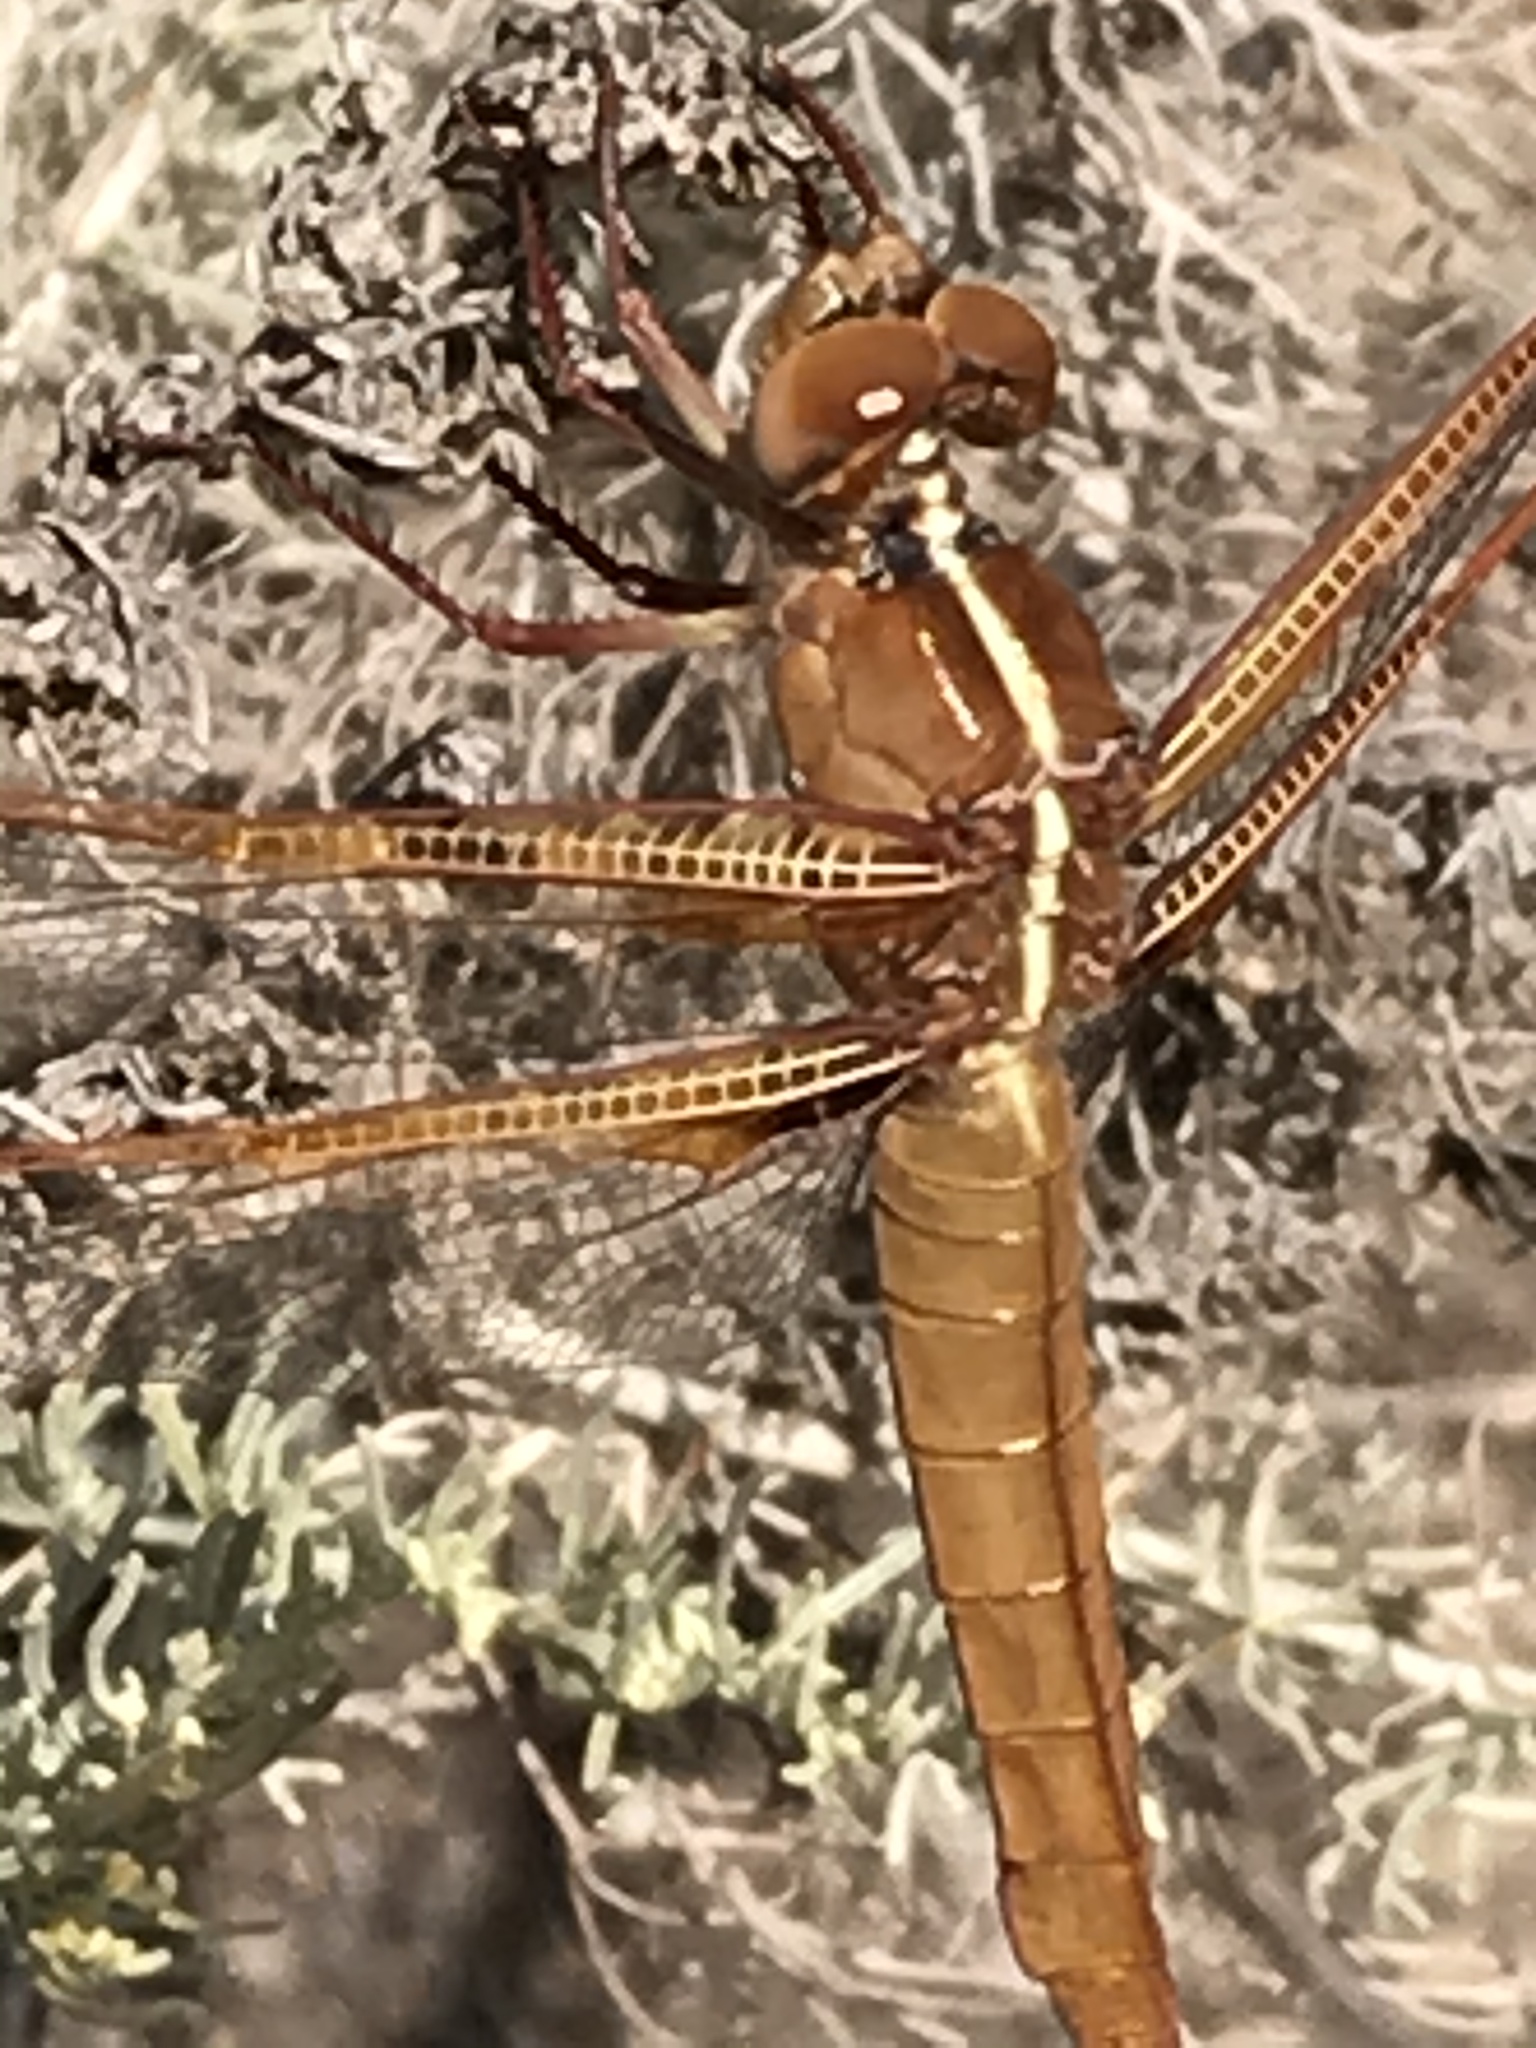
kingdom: Animalia
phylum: Arthropoda
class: Insecta
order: Odonata
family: Libellulidae
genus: Libellula
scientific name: Libellula saturata
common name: Flame skimmer
